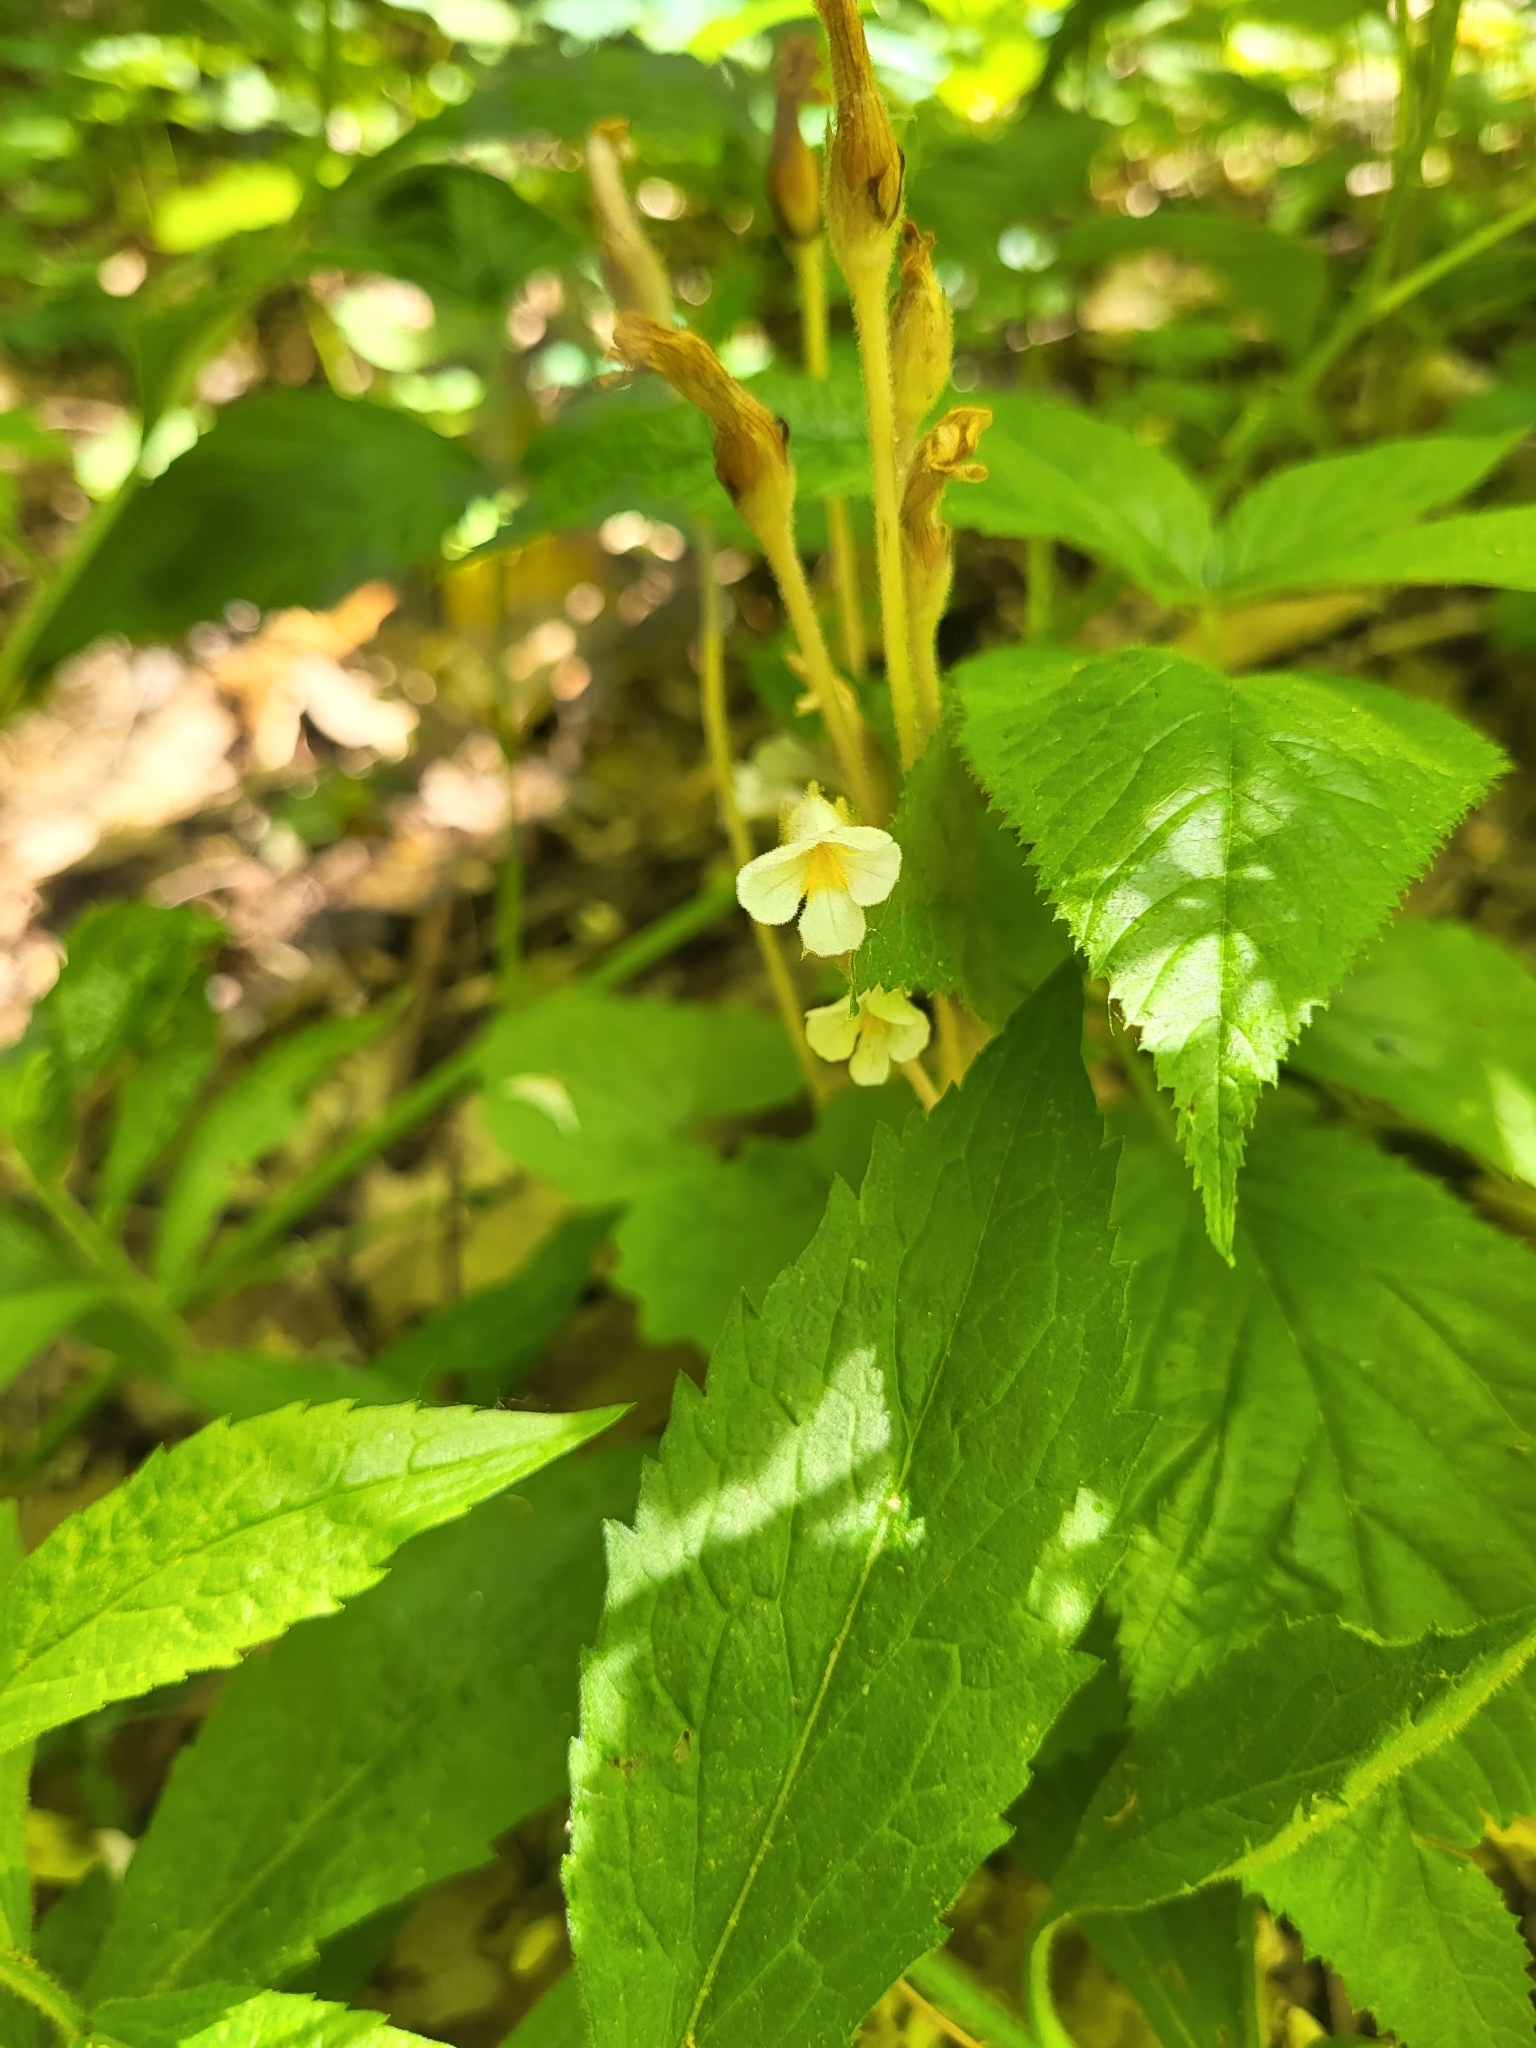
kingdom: Plantae
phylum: Tracheophyta
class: Magnoliopsida
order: Lamiales
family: Orobanchaceae
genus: Aphyllon
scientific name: Aphyllon uniflorum
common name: One-flowered broomrape
